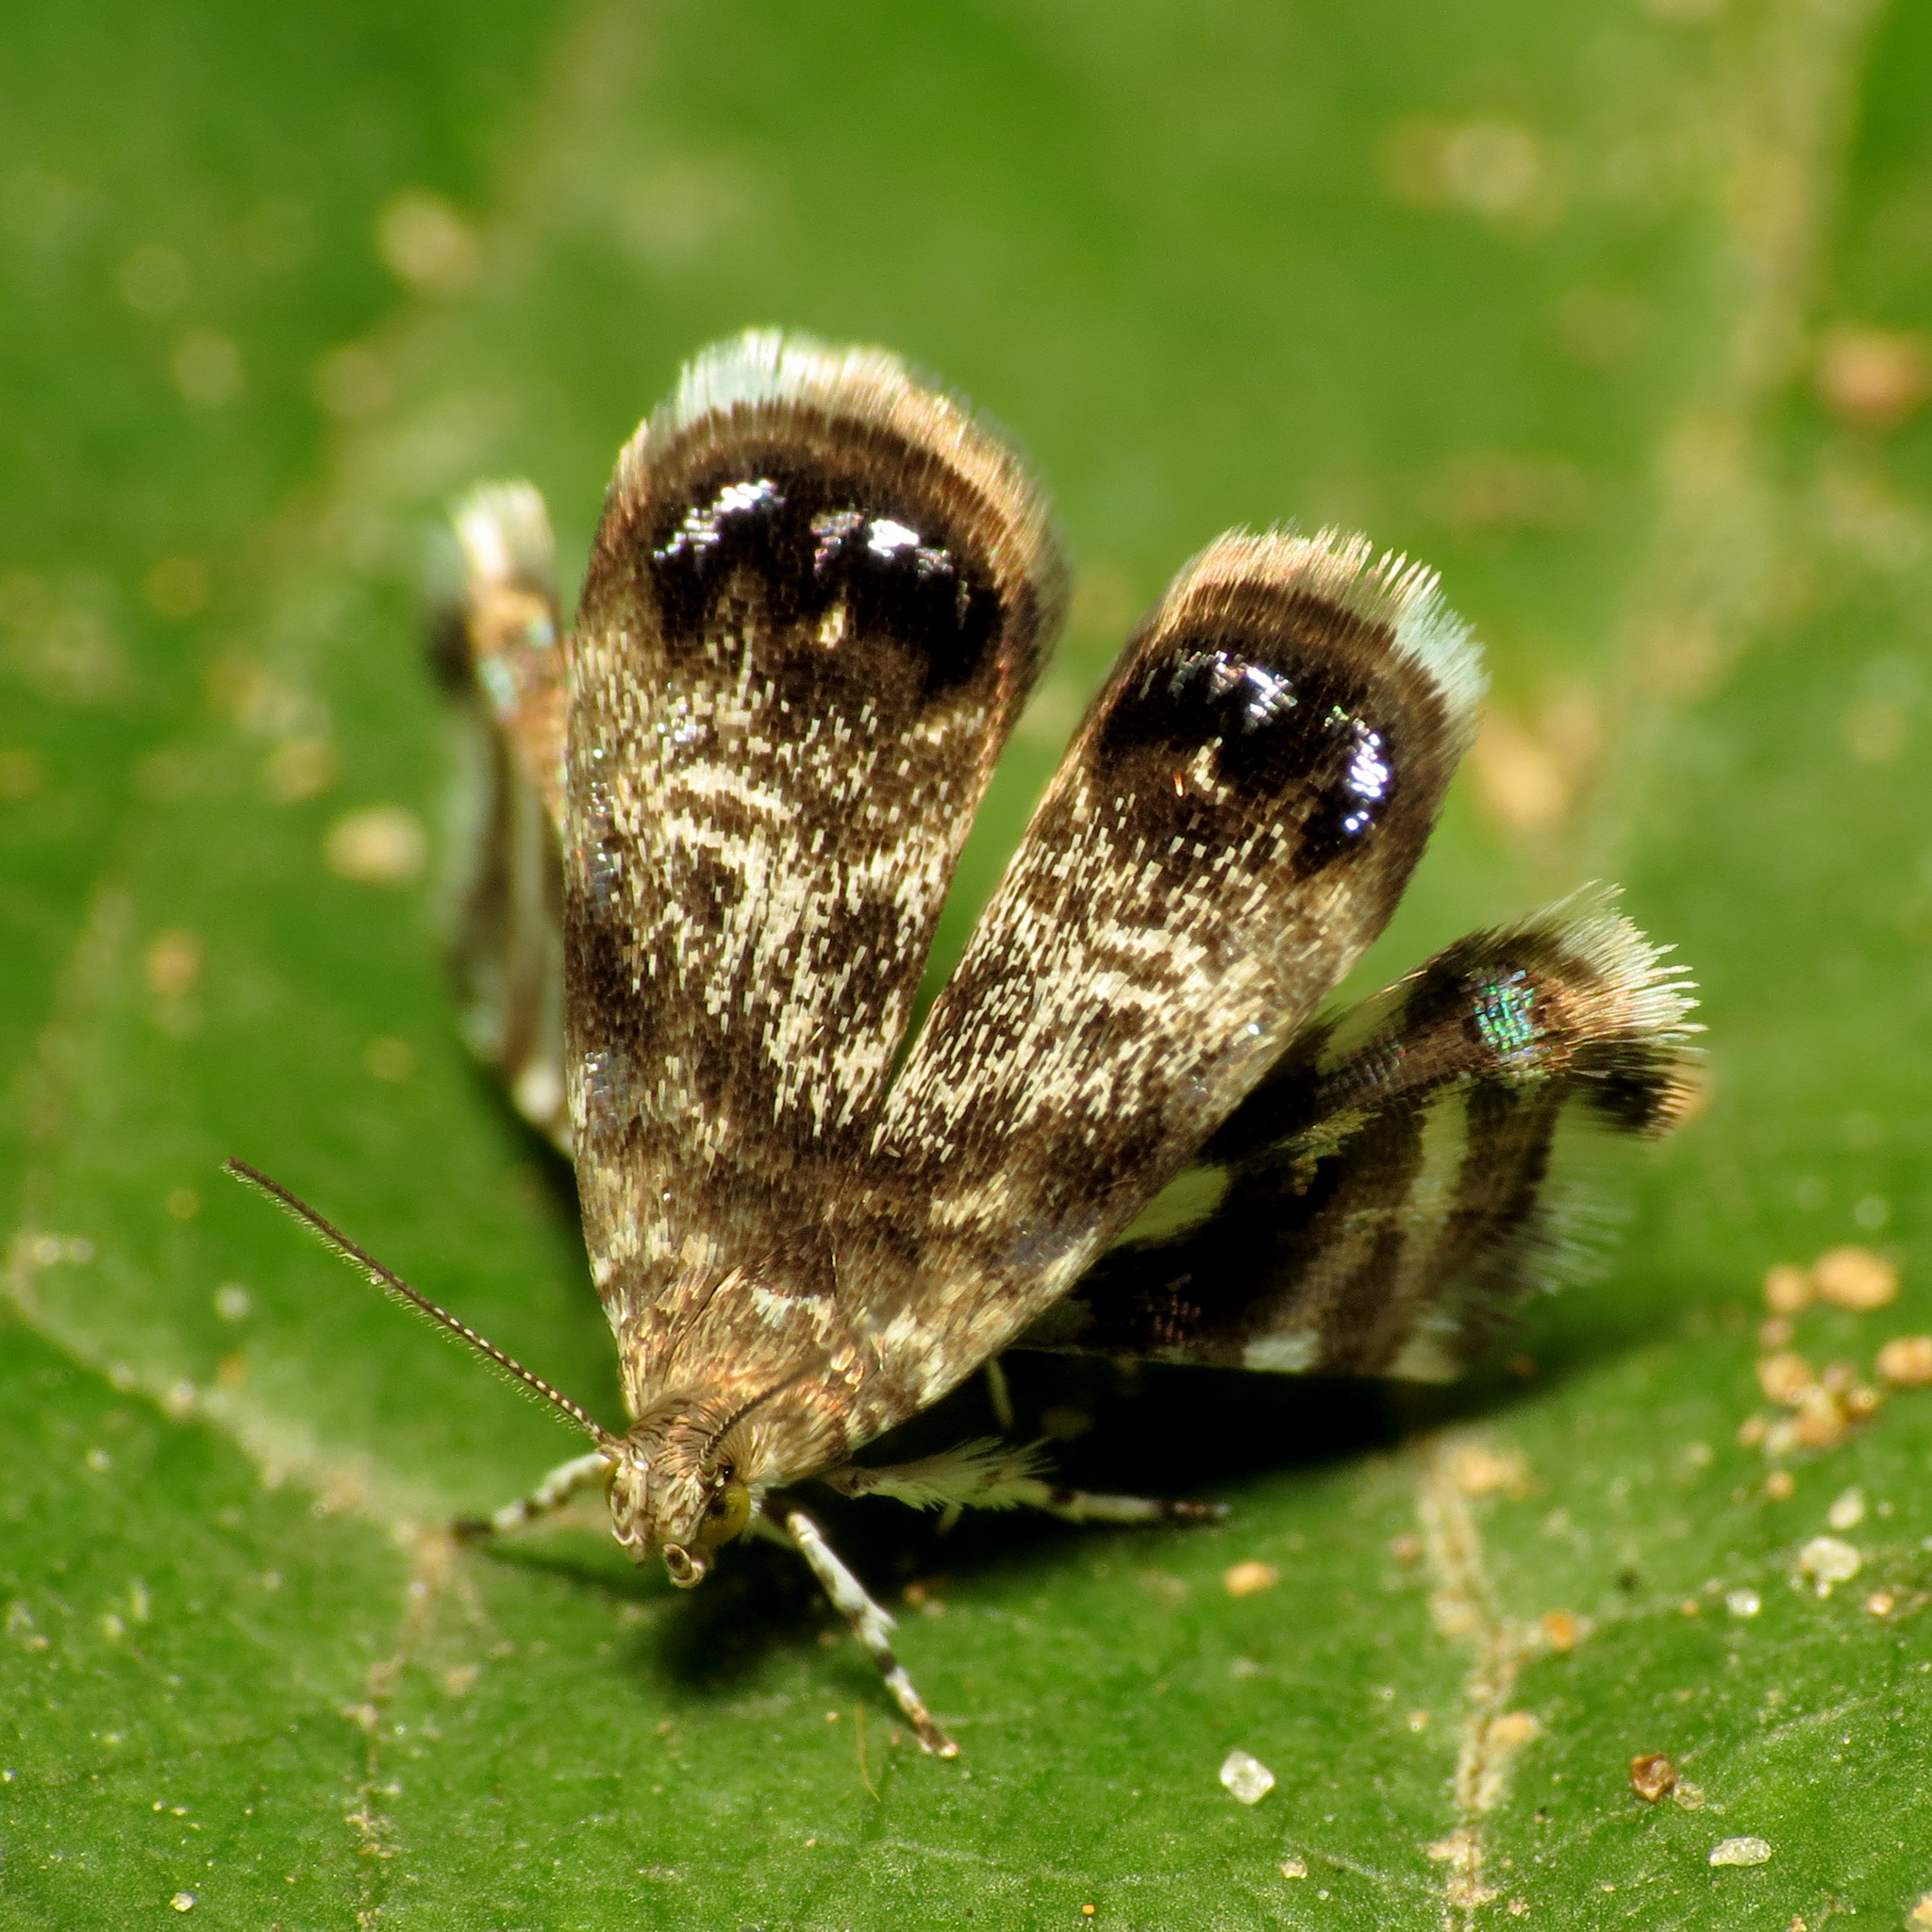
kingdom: Animalia
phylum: Arthropoda
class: Insecta
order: Lepidoptera
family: Choreutidae
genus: Brenthia
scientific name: Brenthia pavonacella
